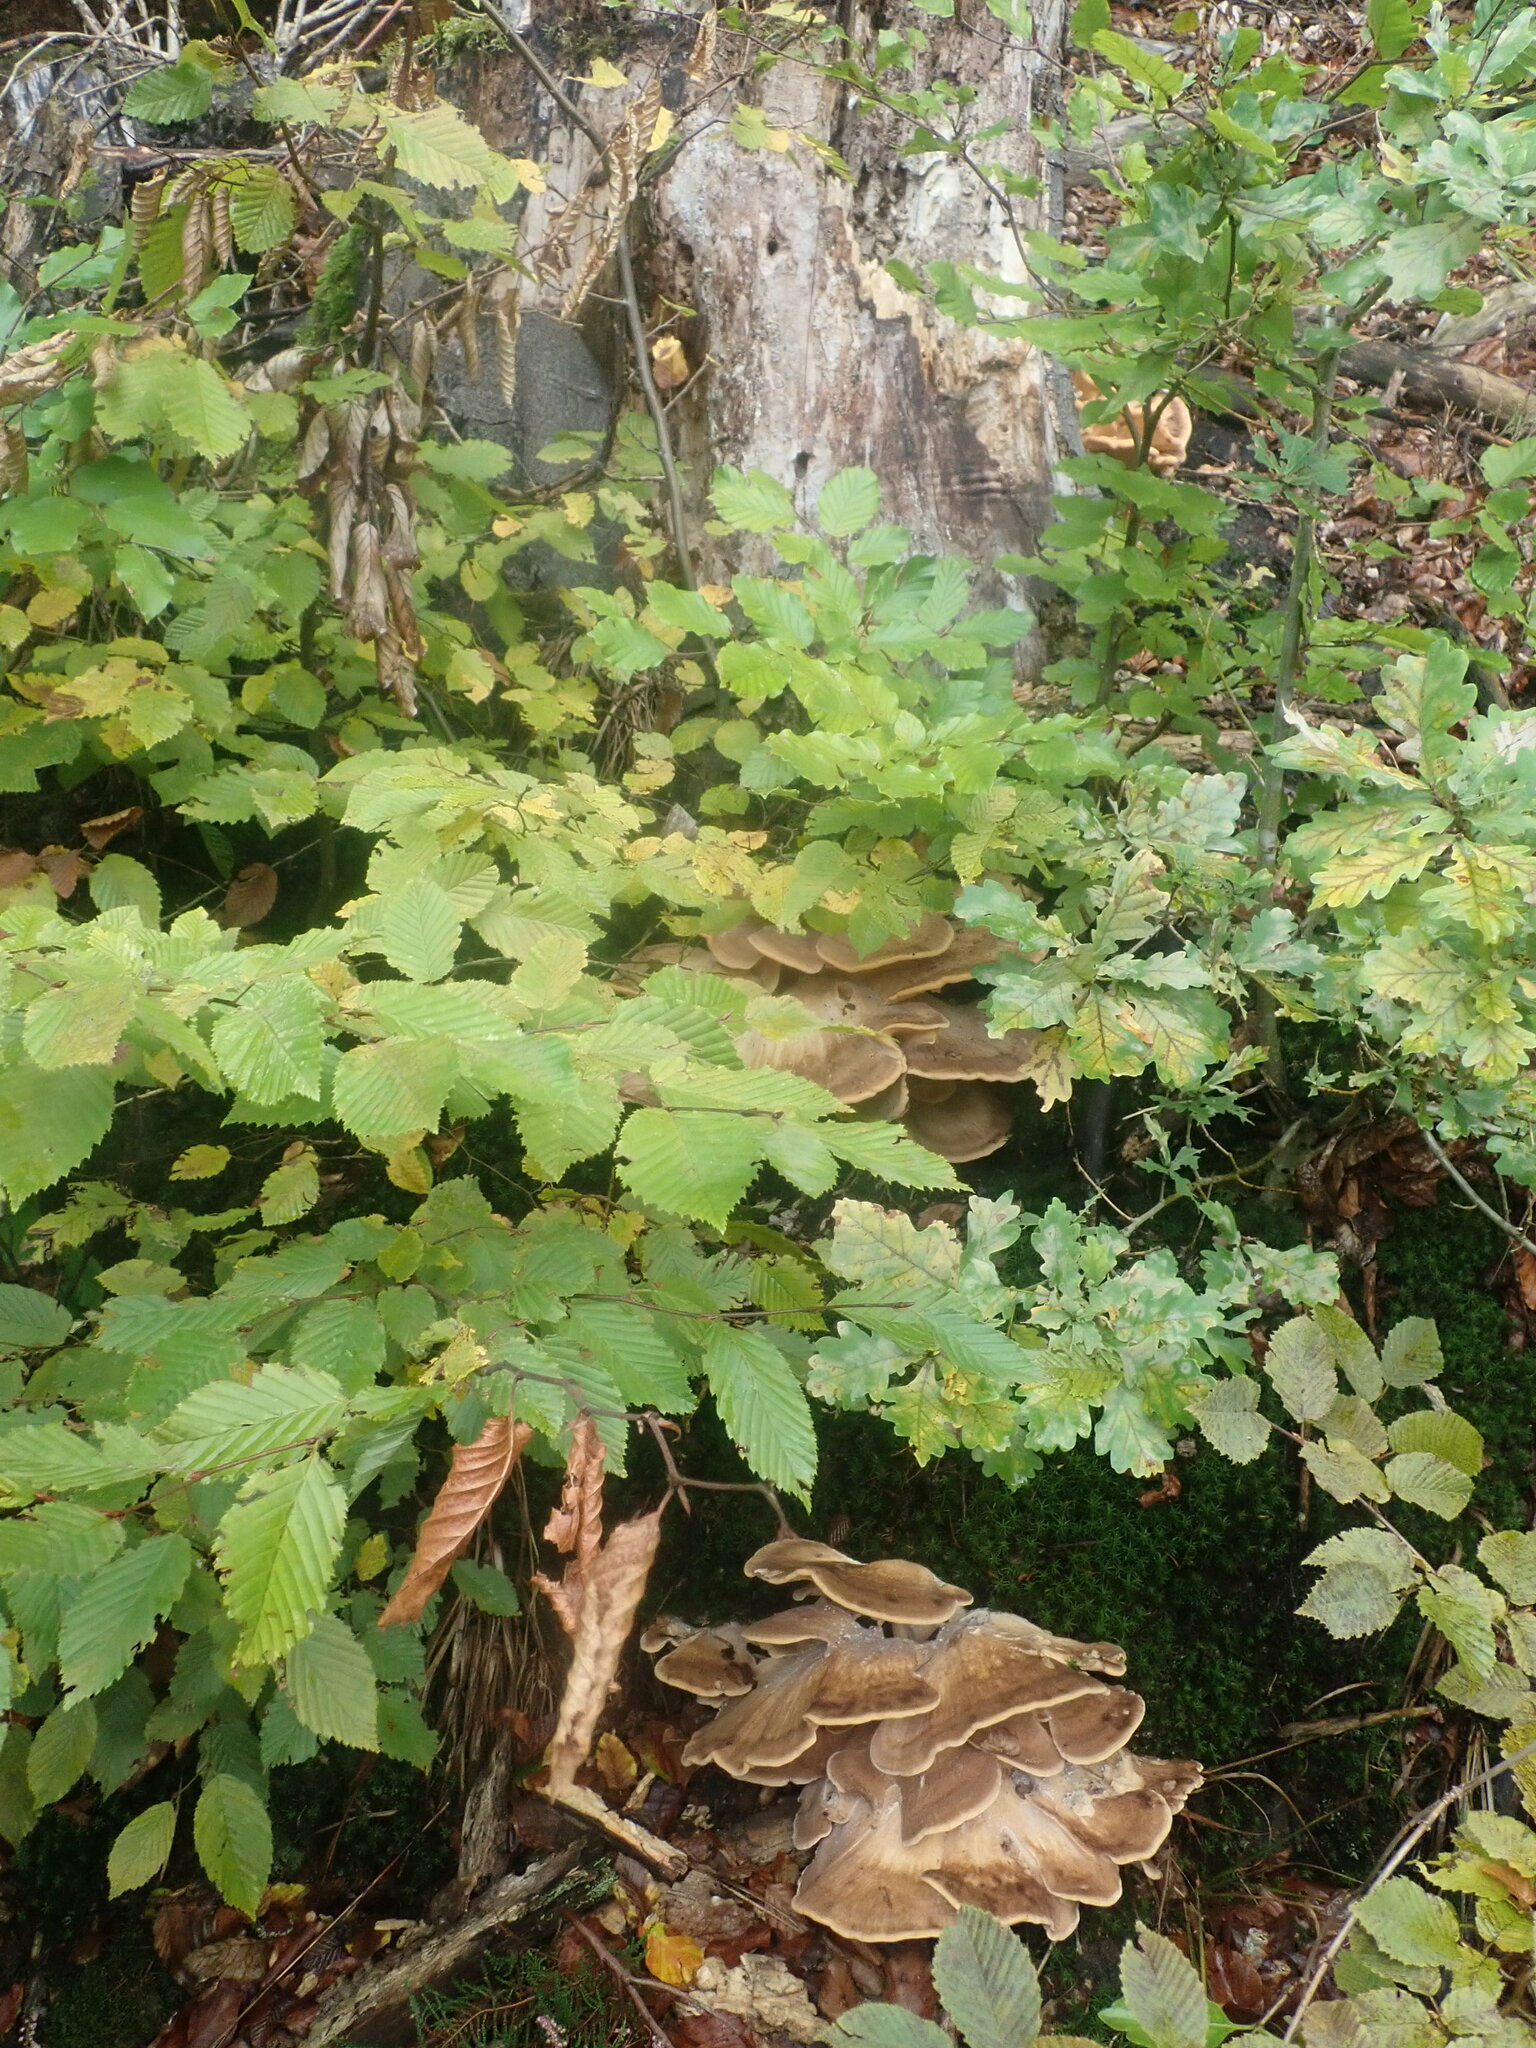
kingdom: Fungi
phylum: Basidiomycota
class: Agaricomycetes
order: Polyporales
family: Meripilaceae
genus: Meripilus
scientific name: Meripilus giganteus
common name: Giant polypore
